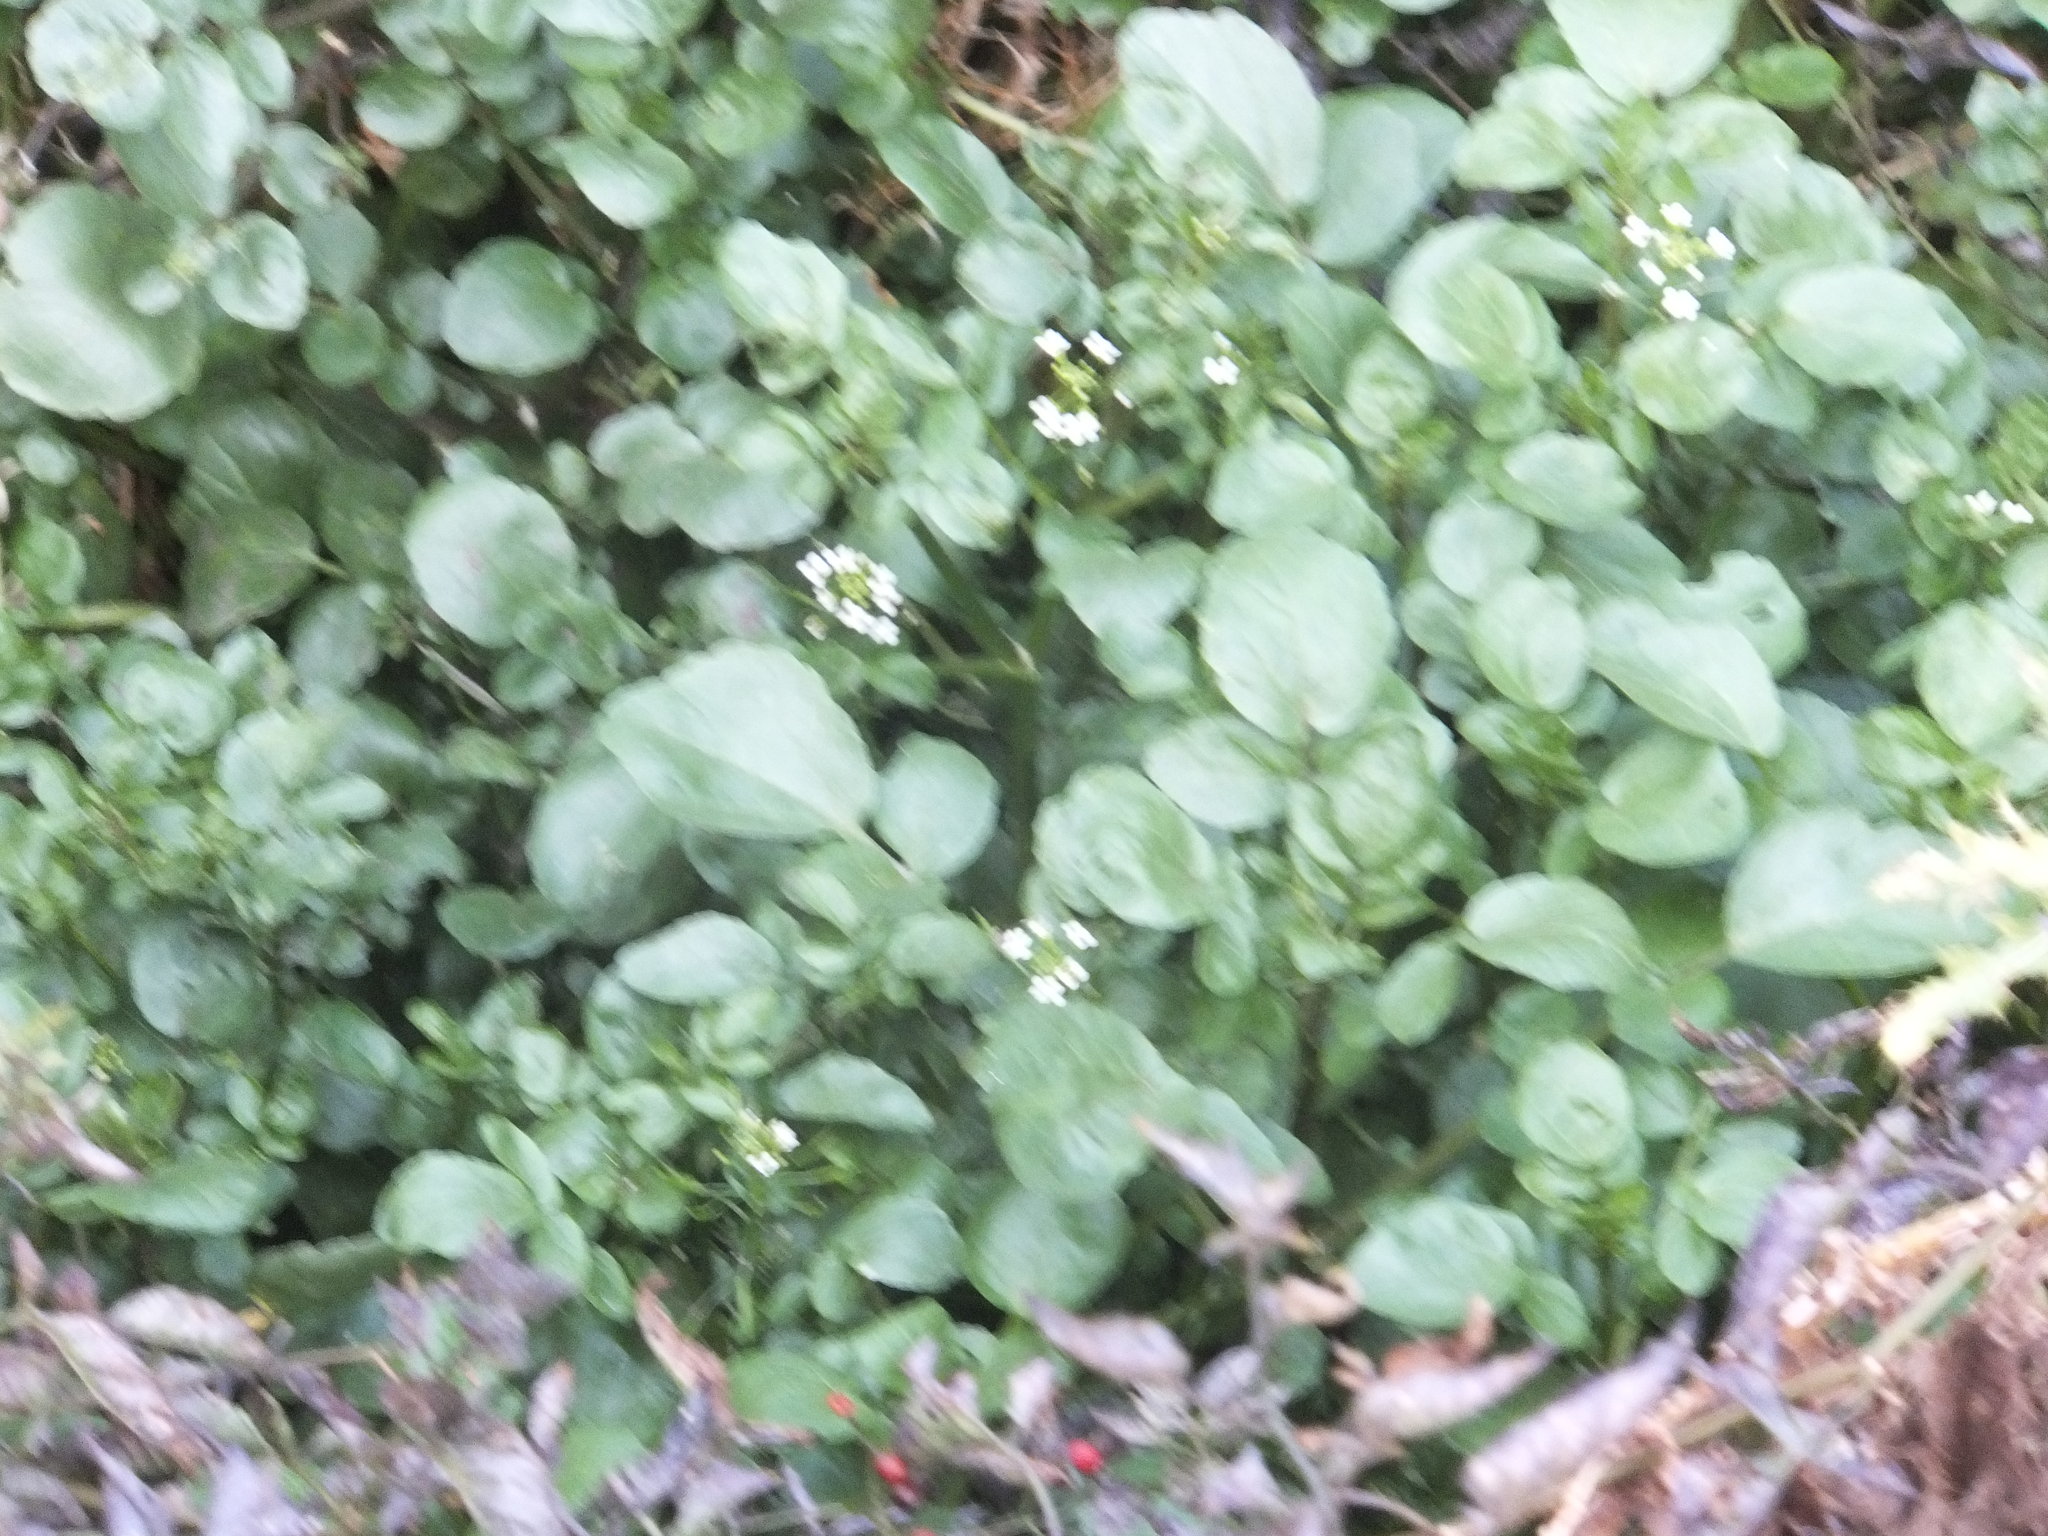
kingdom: Plantae
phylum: Tracheophyta
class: Magnoliopsida
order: Brassicales
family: Brassicaceae
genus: Nasturtium
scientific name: Nasturtium officinale
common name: Watercress
